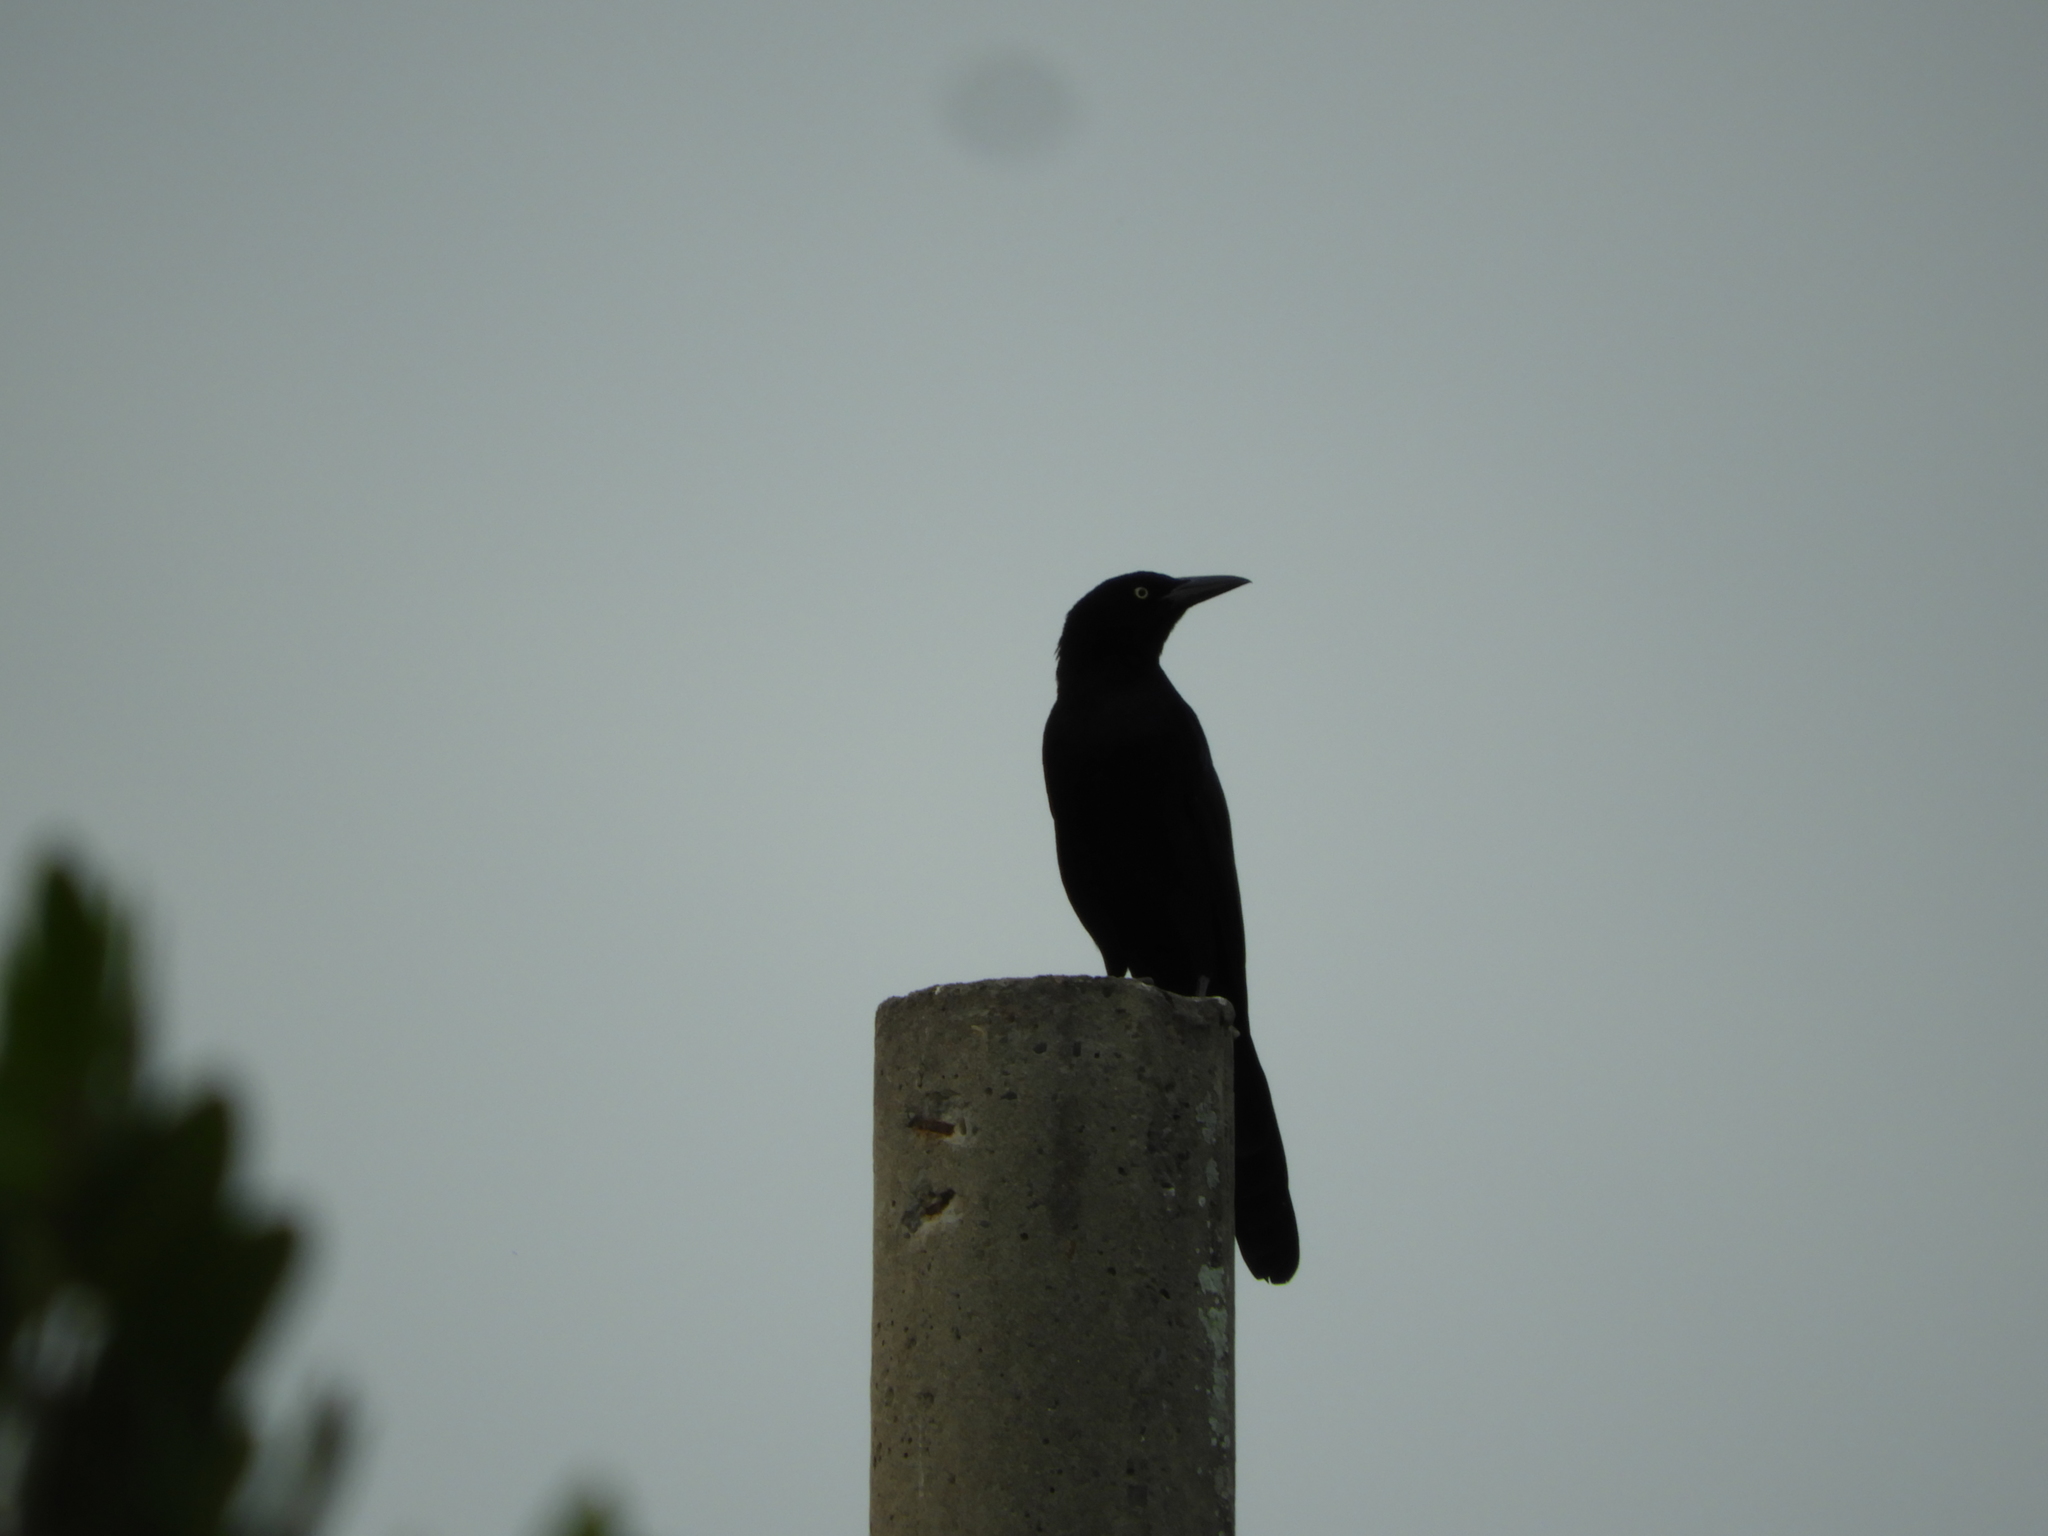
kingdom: Animalia
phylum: Chordata
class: Aves
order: Passeriformes
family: Icteridae
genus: Quiscalus
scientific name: Quiscalus mexicanus
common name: Great-tailed grackle
